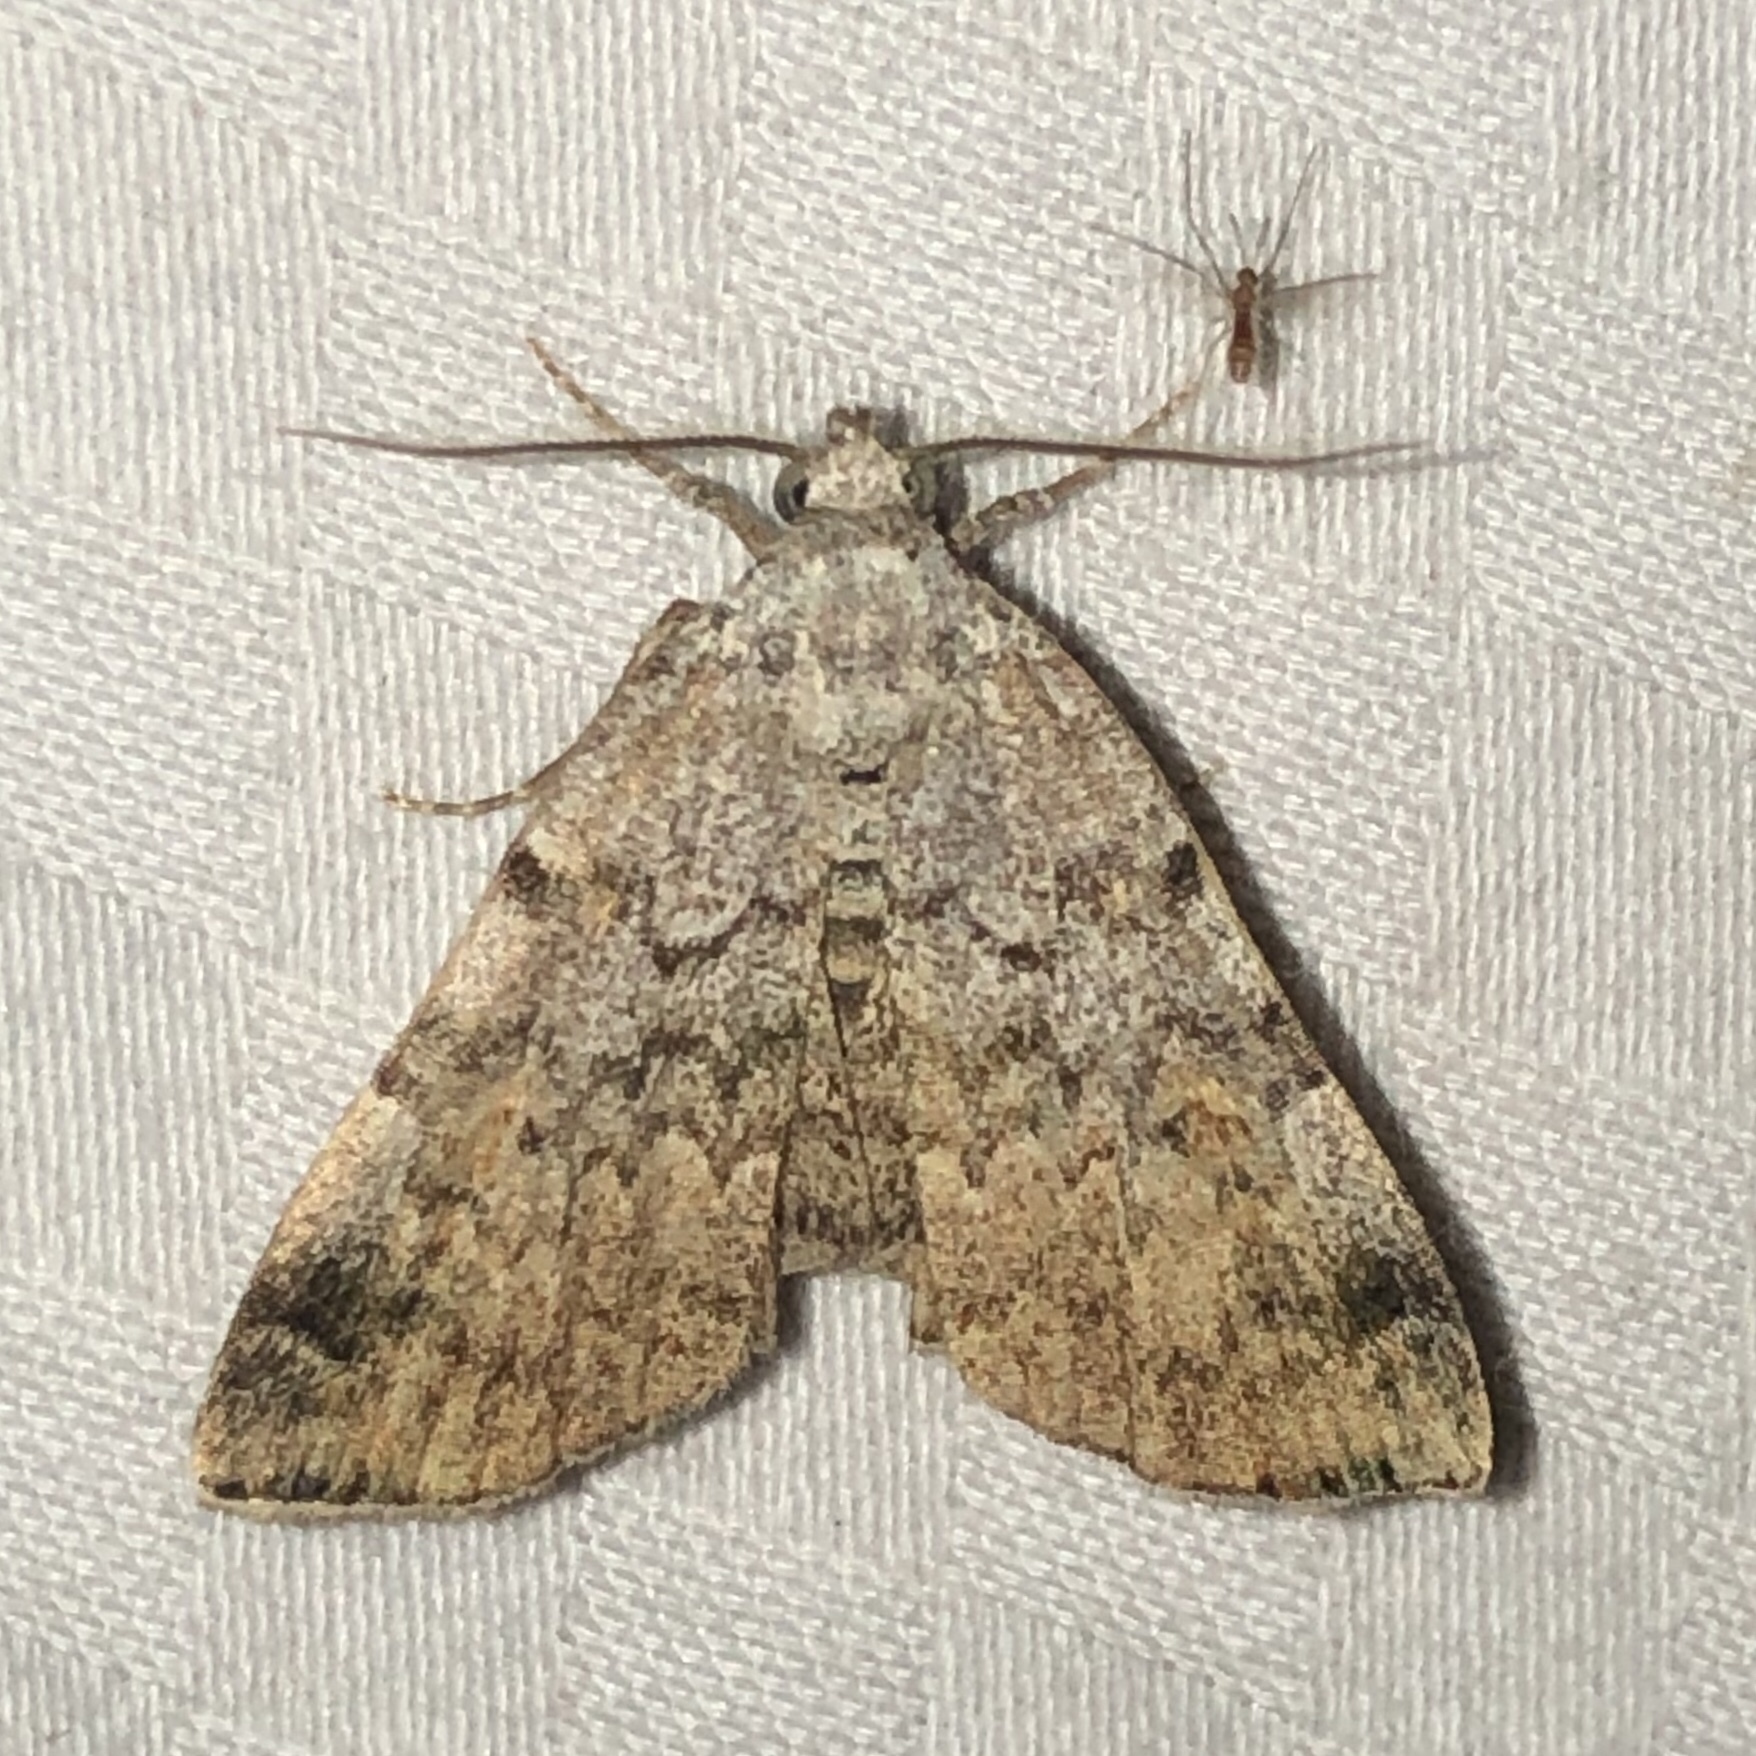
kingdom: Animalia
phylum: Arthropoda
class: Insecta
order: Lepidoptera
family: Erebidae
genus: Idia
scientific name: Idia americalis
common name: American idia moth
